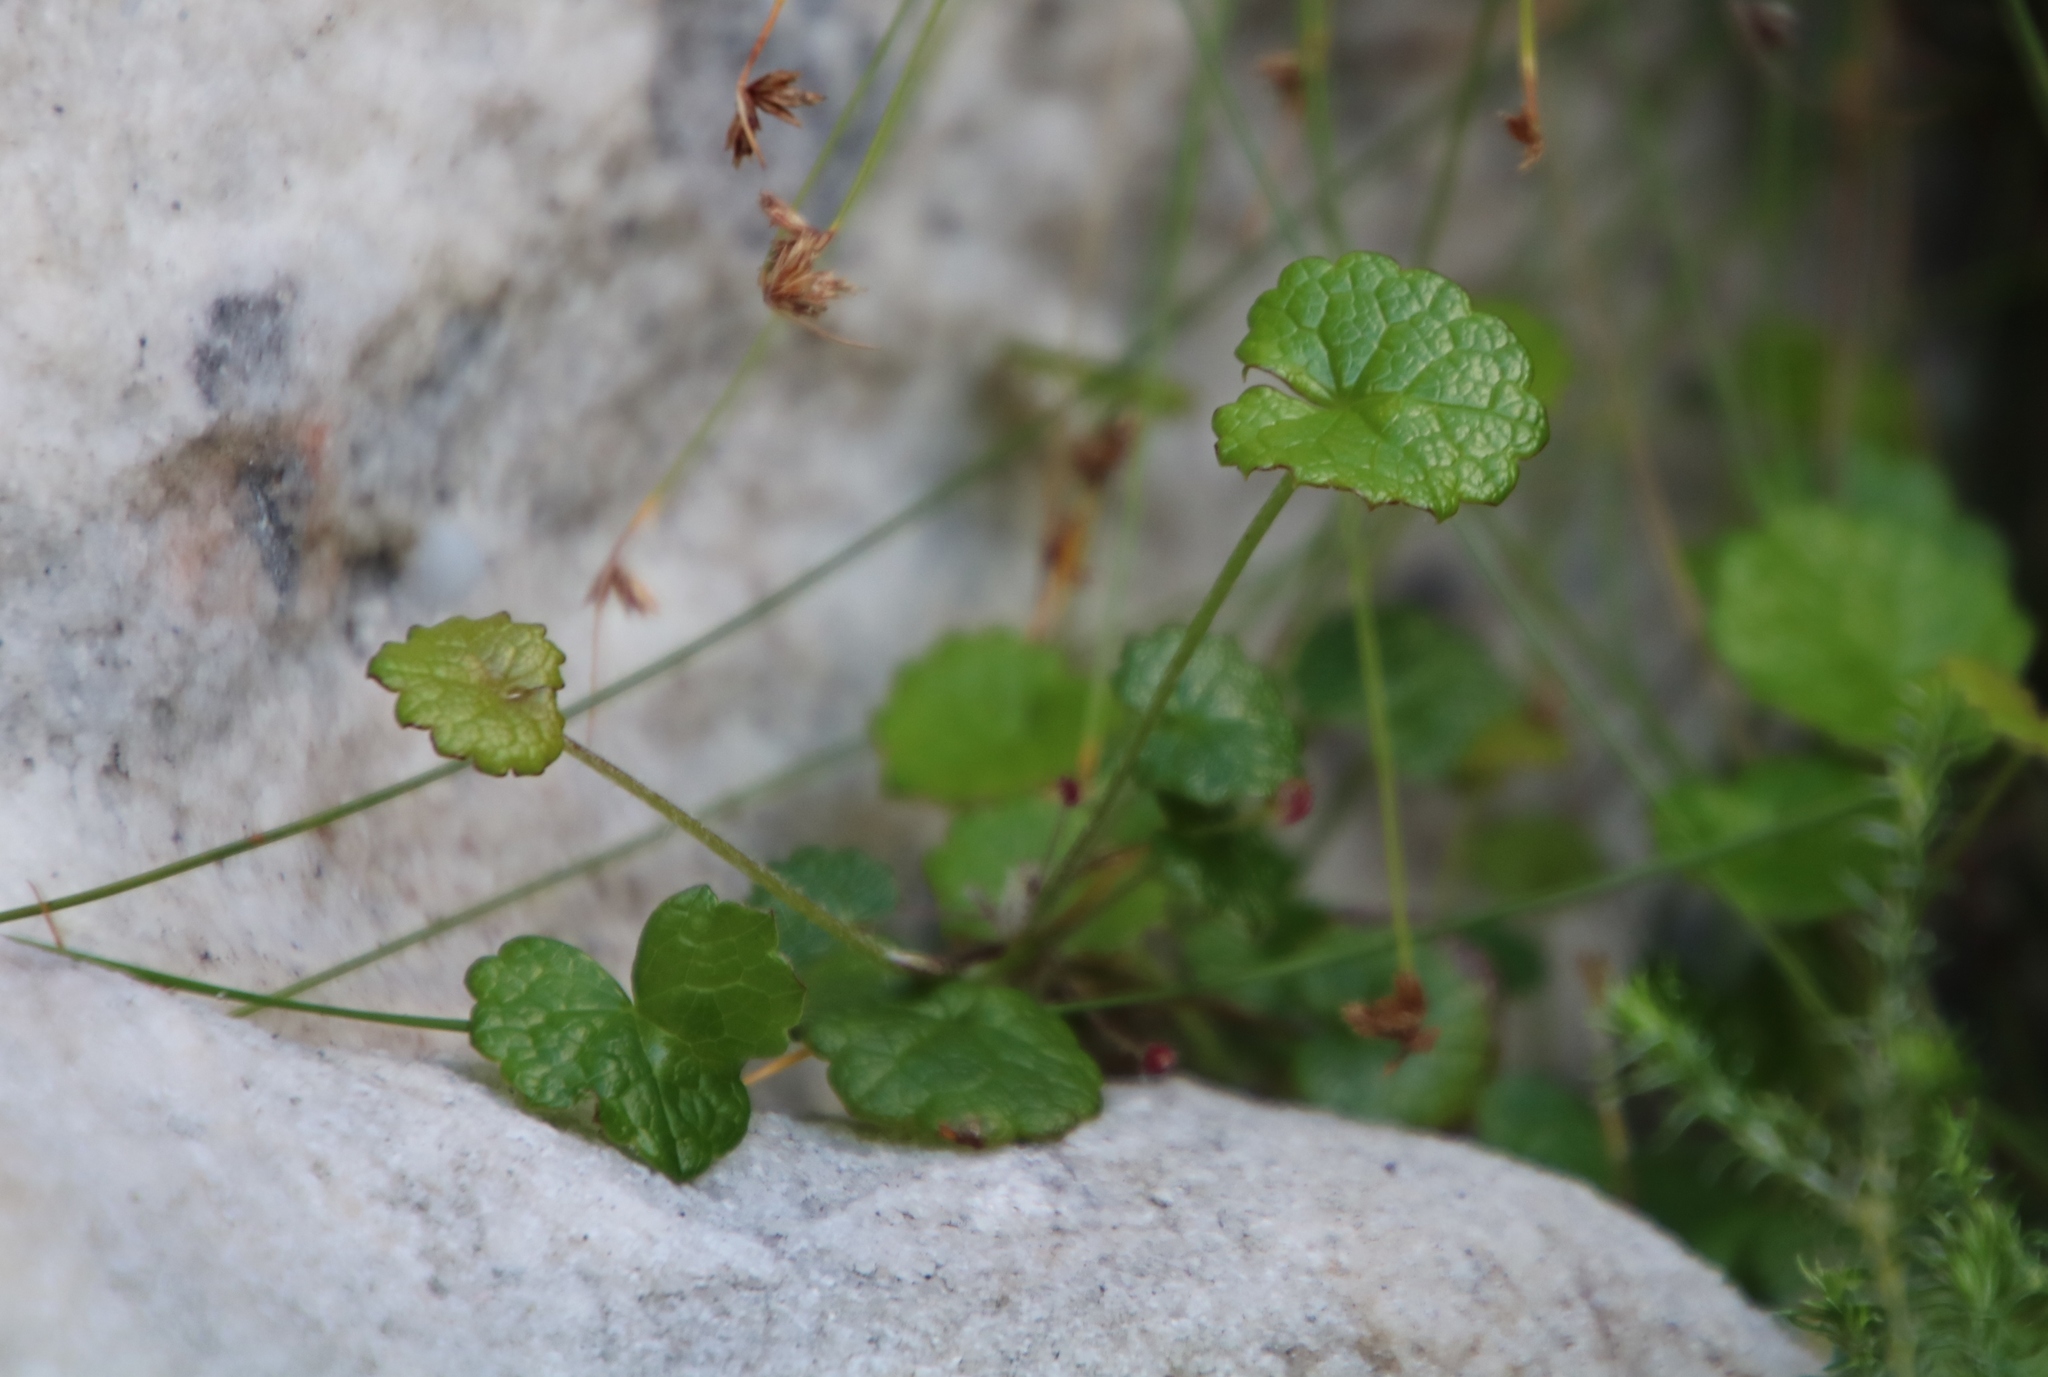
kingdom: Plantae
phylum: Tracheophyta
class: Magnoliopsida
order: Apiales
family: Apiaceae
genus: Centella
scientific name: Centella eriantha
